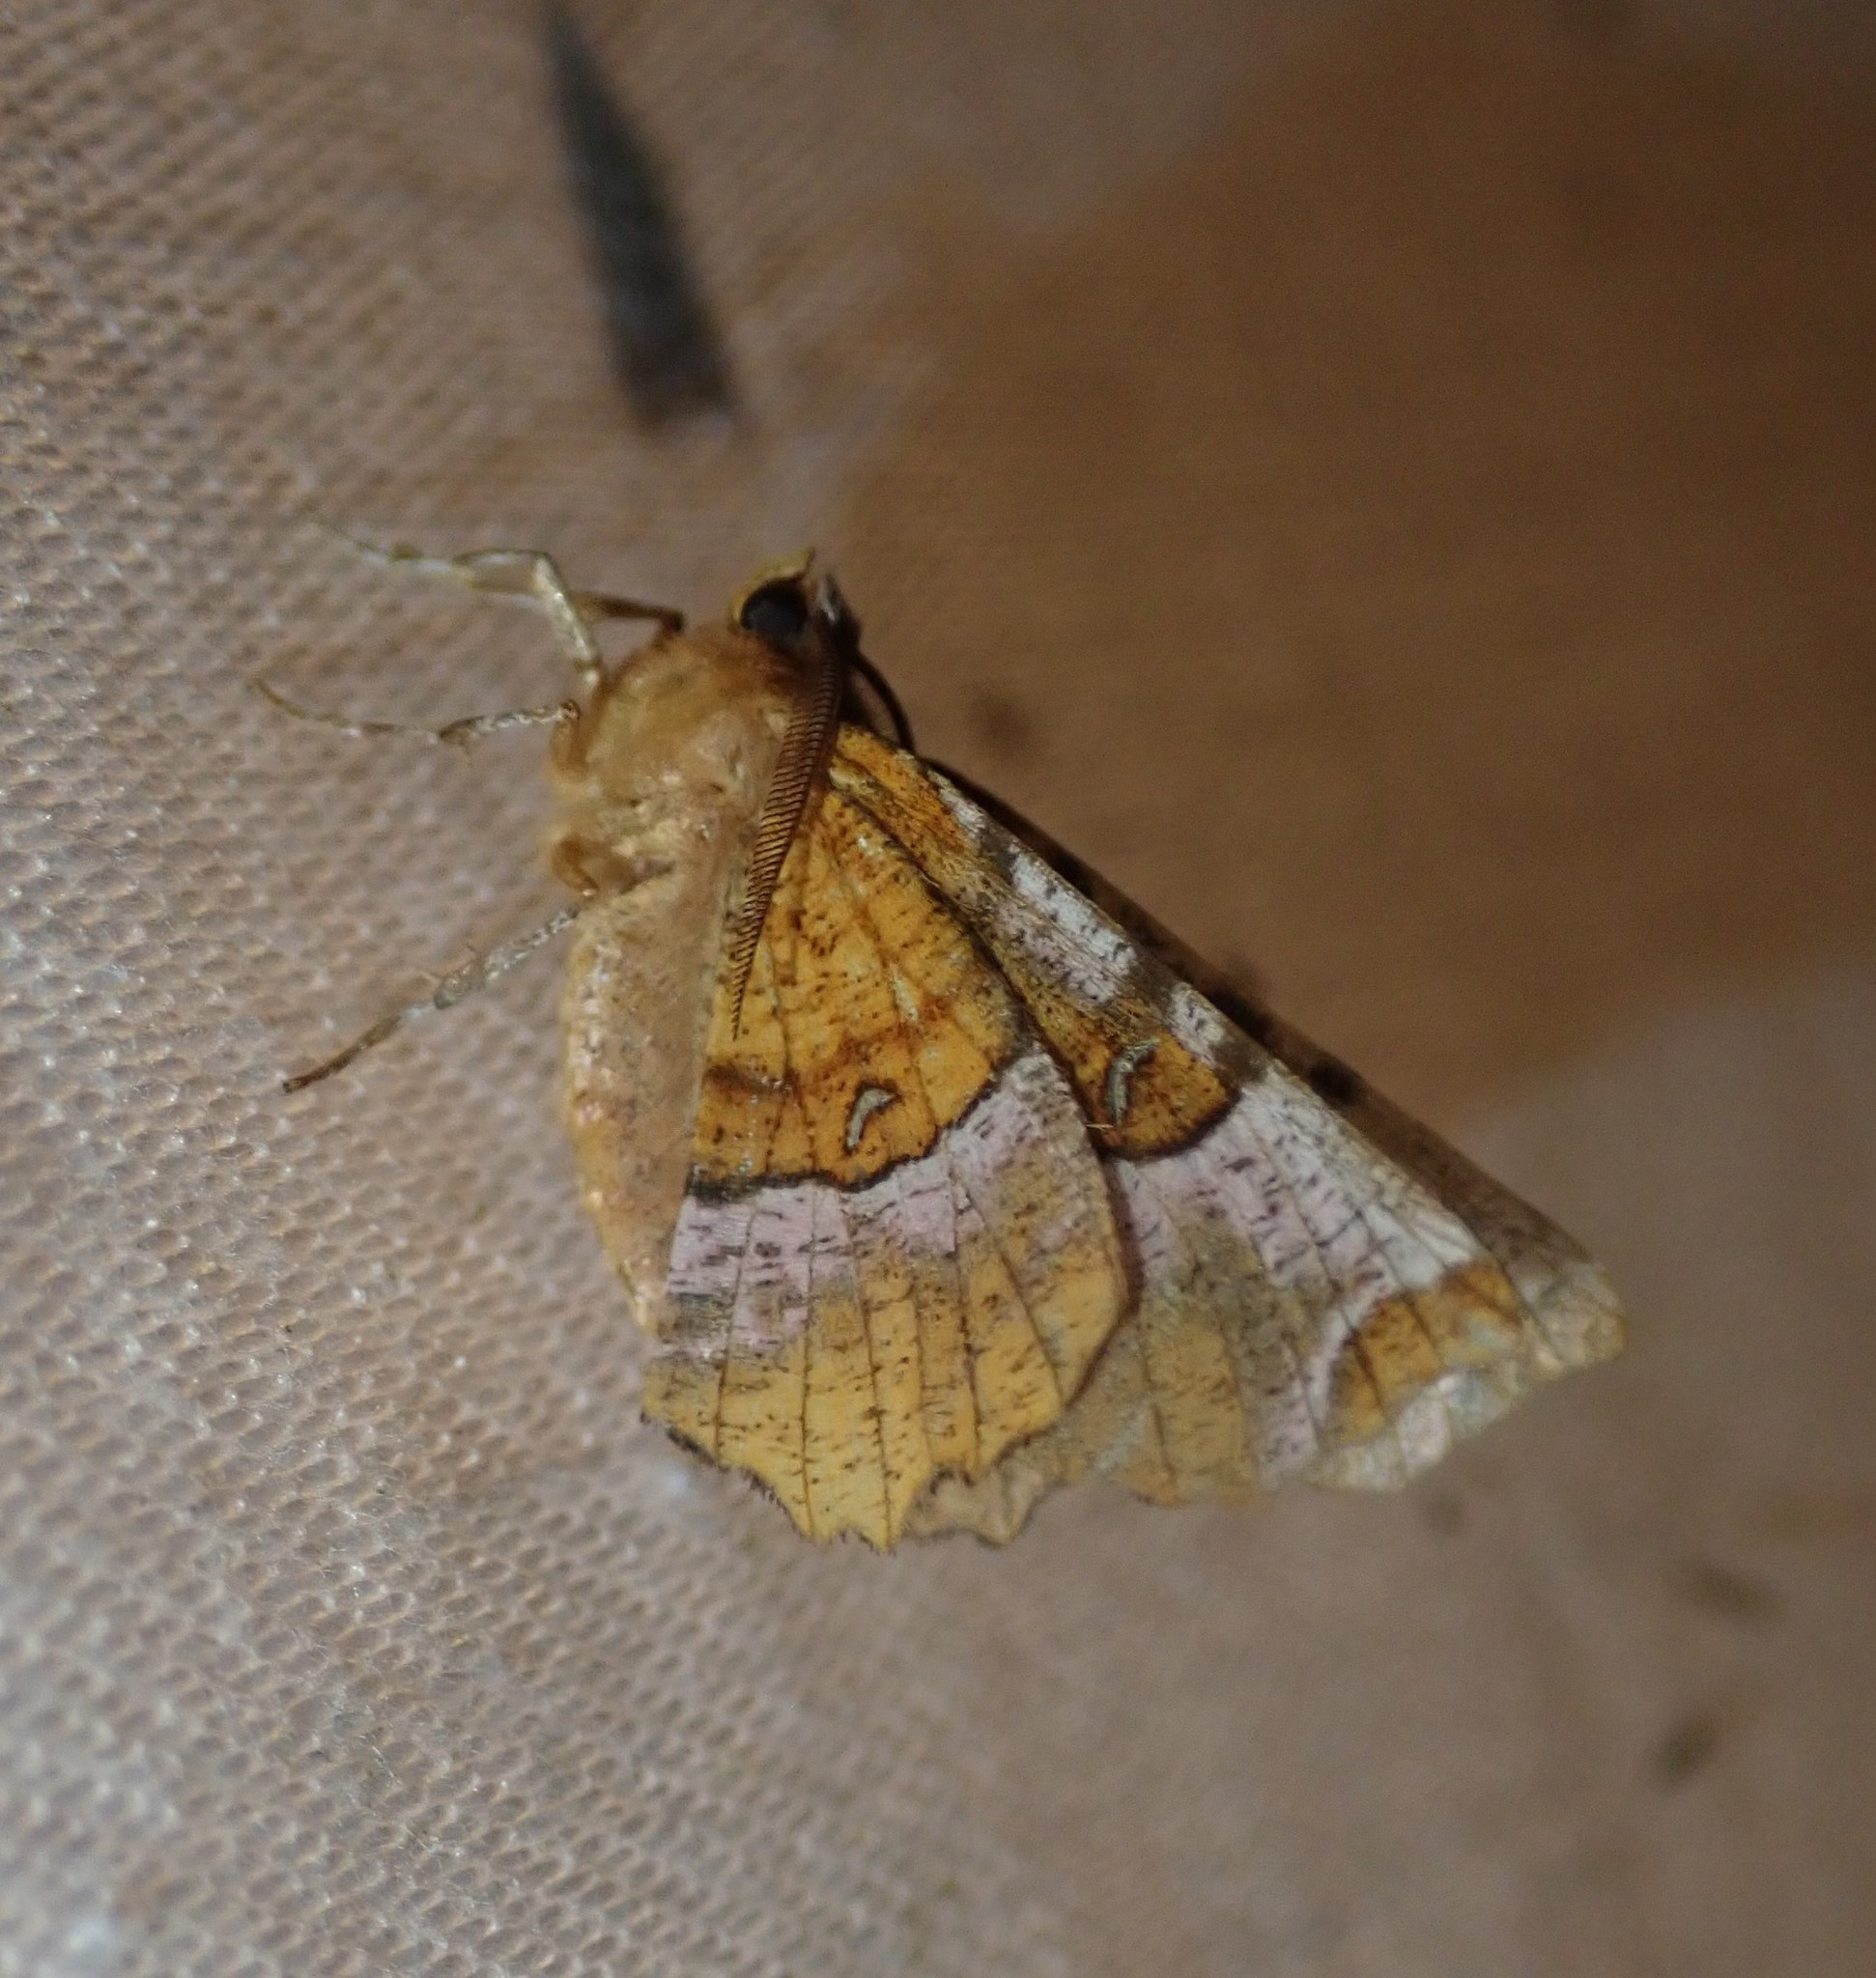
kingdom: Animalia
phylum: Arthropoda
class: Insecta
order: Lepidoptera
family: Geometridae
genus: Selenia
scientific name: Selenia tetralunaria
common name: Purple thorn
